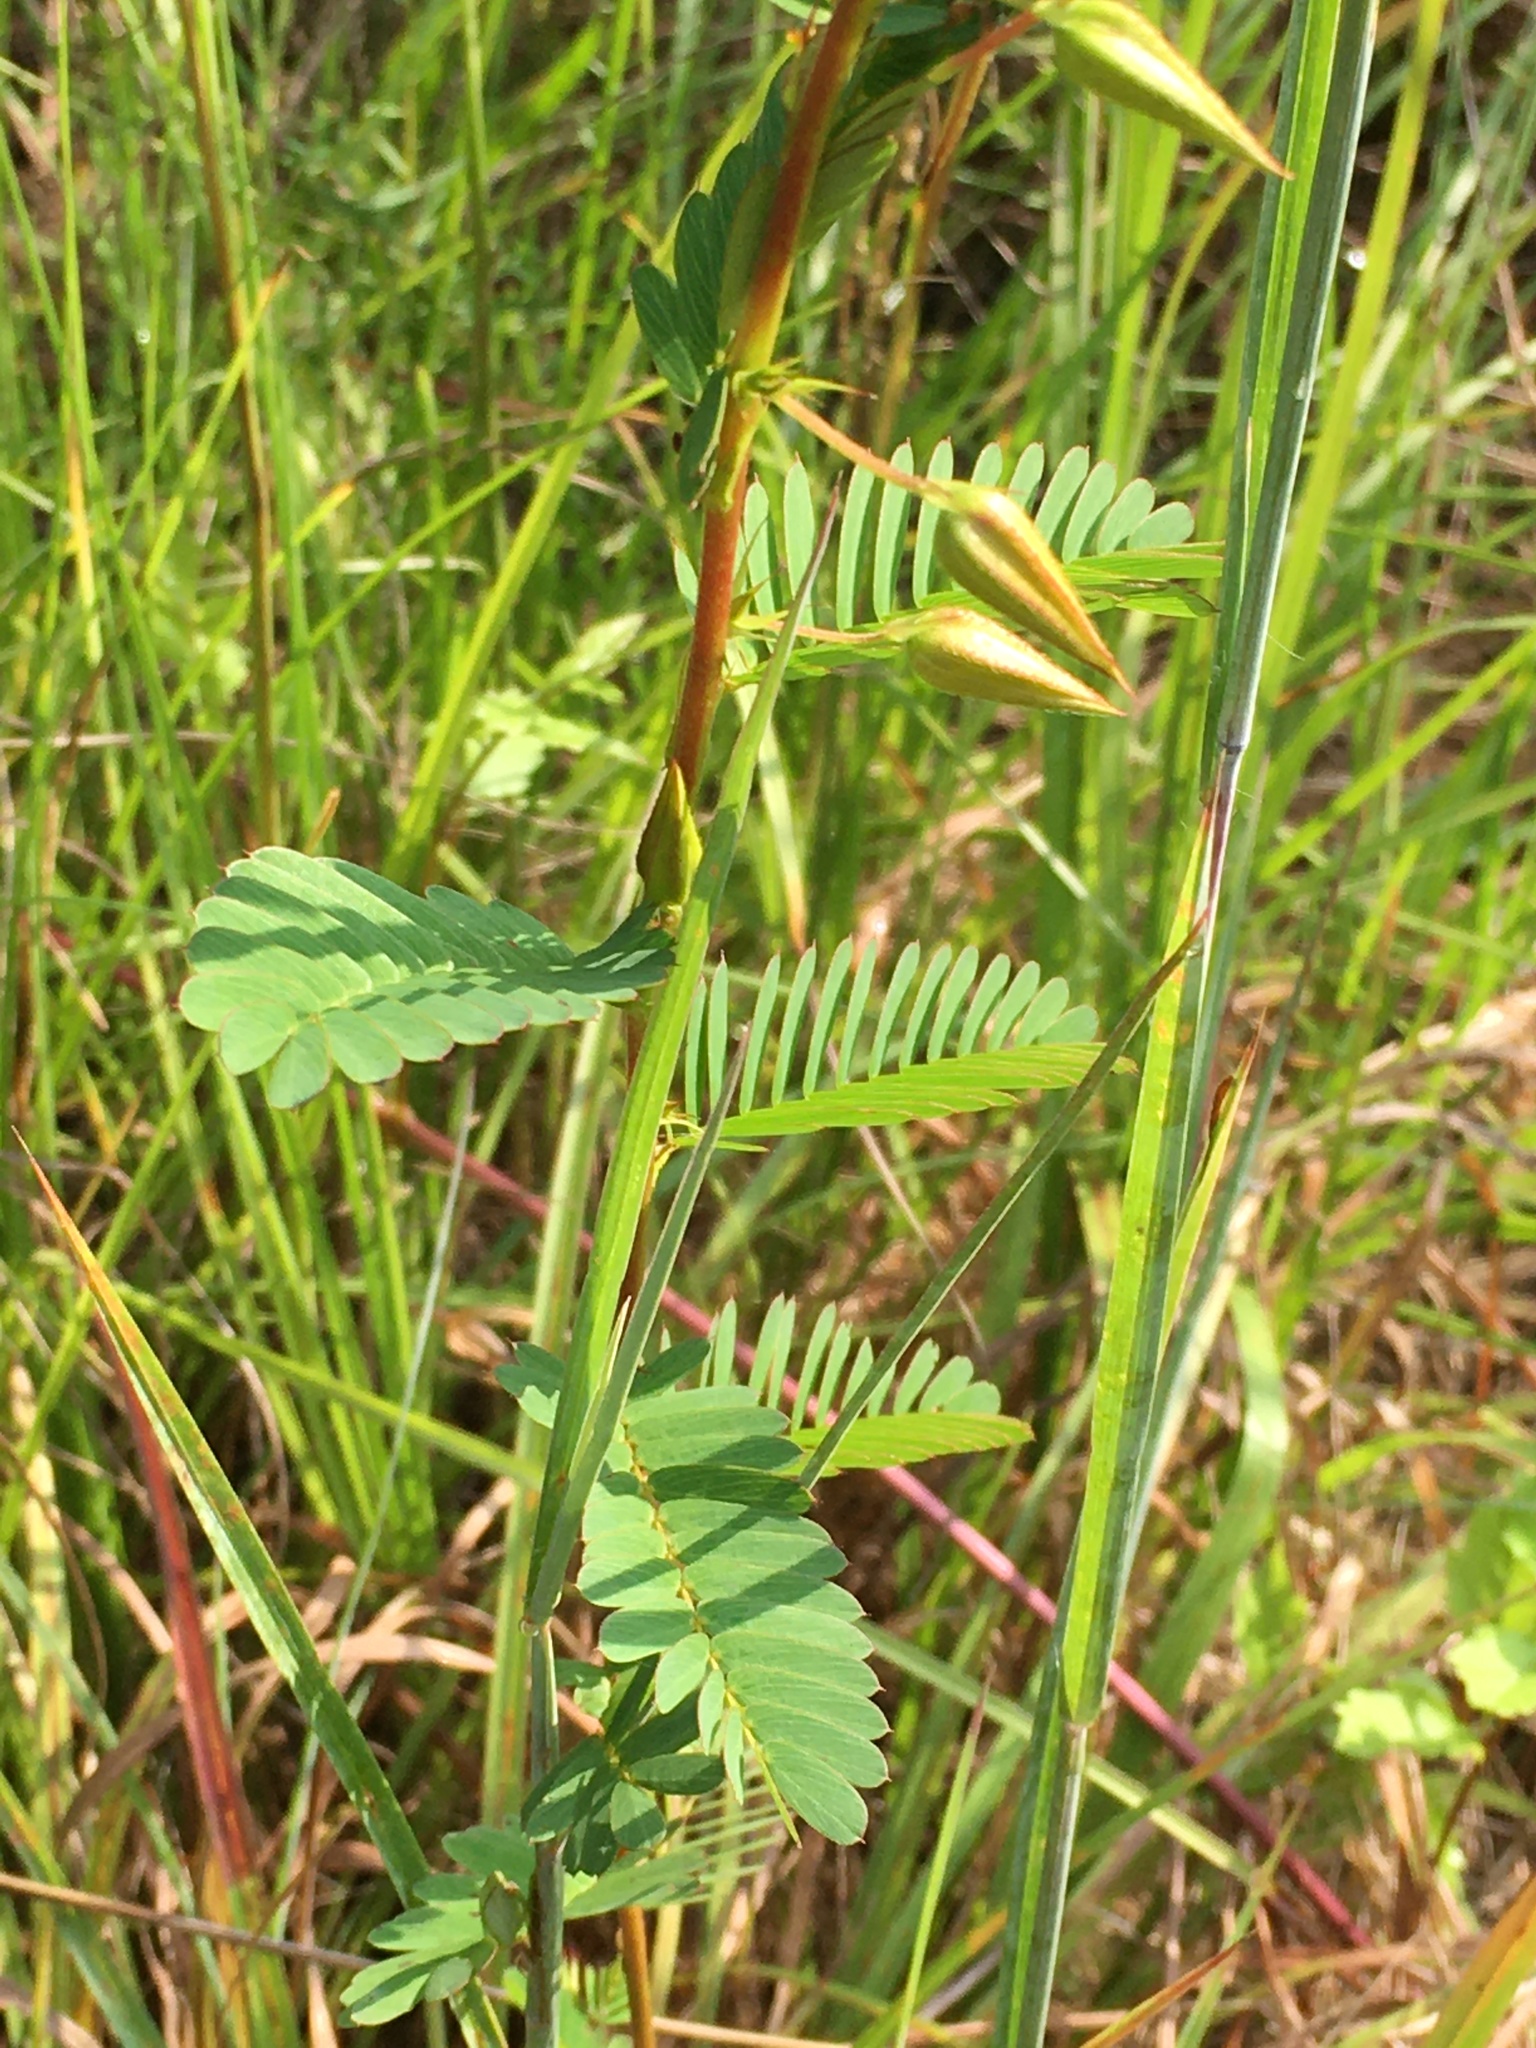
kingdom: Plantae
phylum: Tracheophyta
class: Magnoliopsida
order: Fabales
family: Fabaceae
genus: Chamaecrista
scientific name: Chamaecrista fasciculata
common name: Golden cassia
